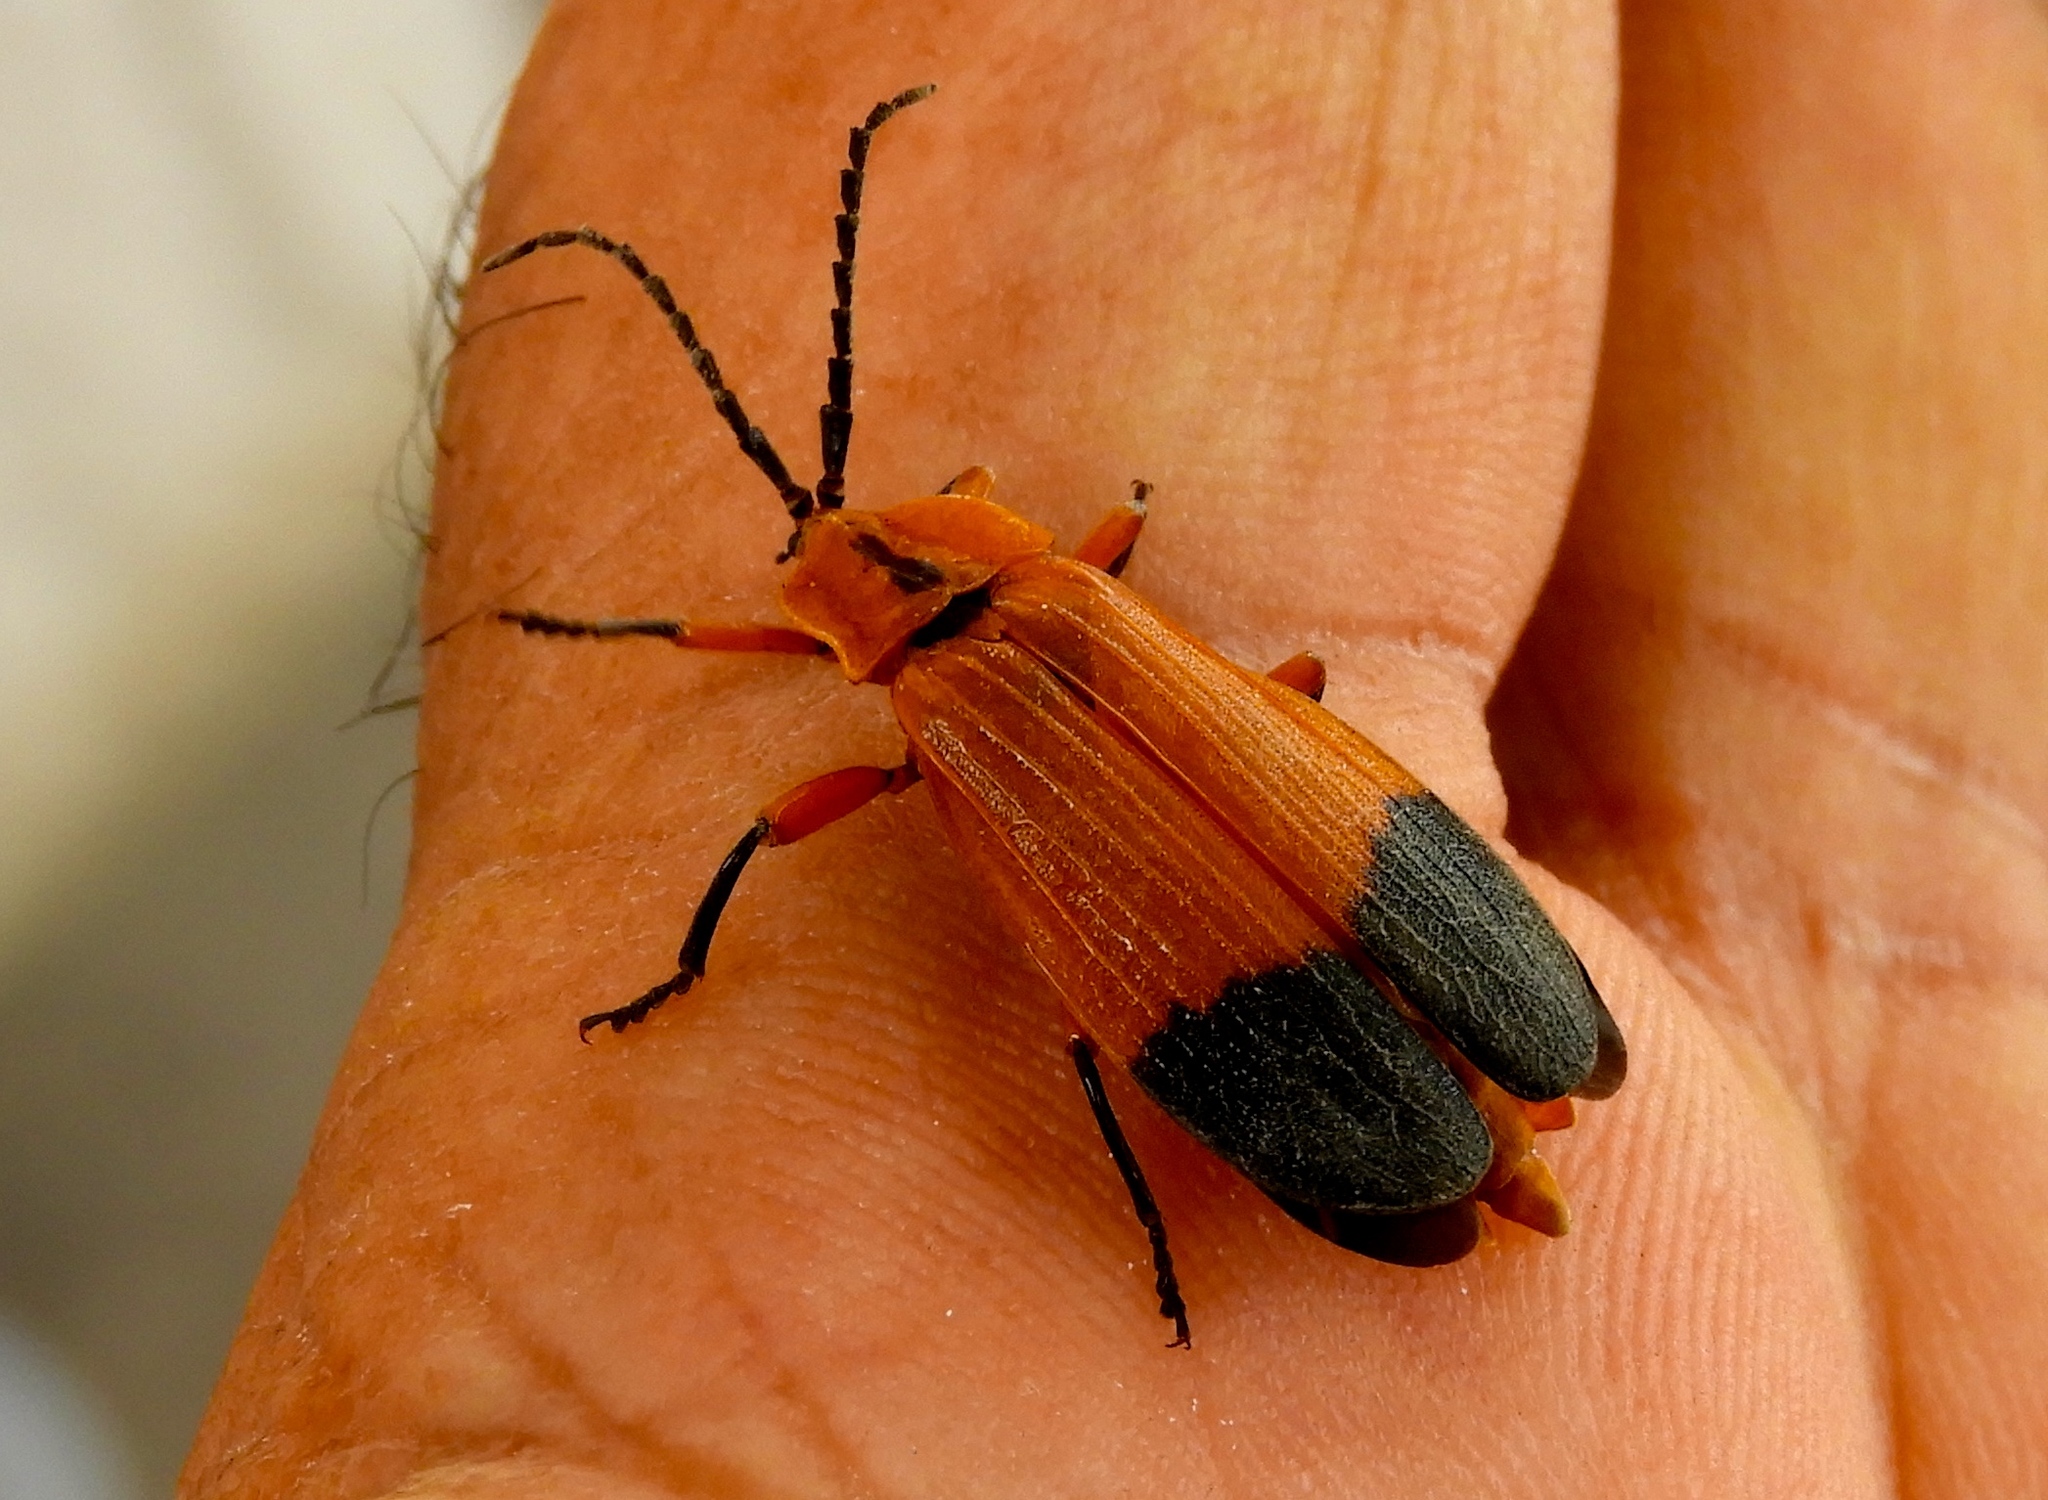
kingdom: Animalia
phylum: Arthropoda
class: Insecta
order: Coleoptera
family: Lycidae
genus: Lycus
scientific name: Lycus
